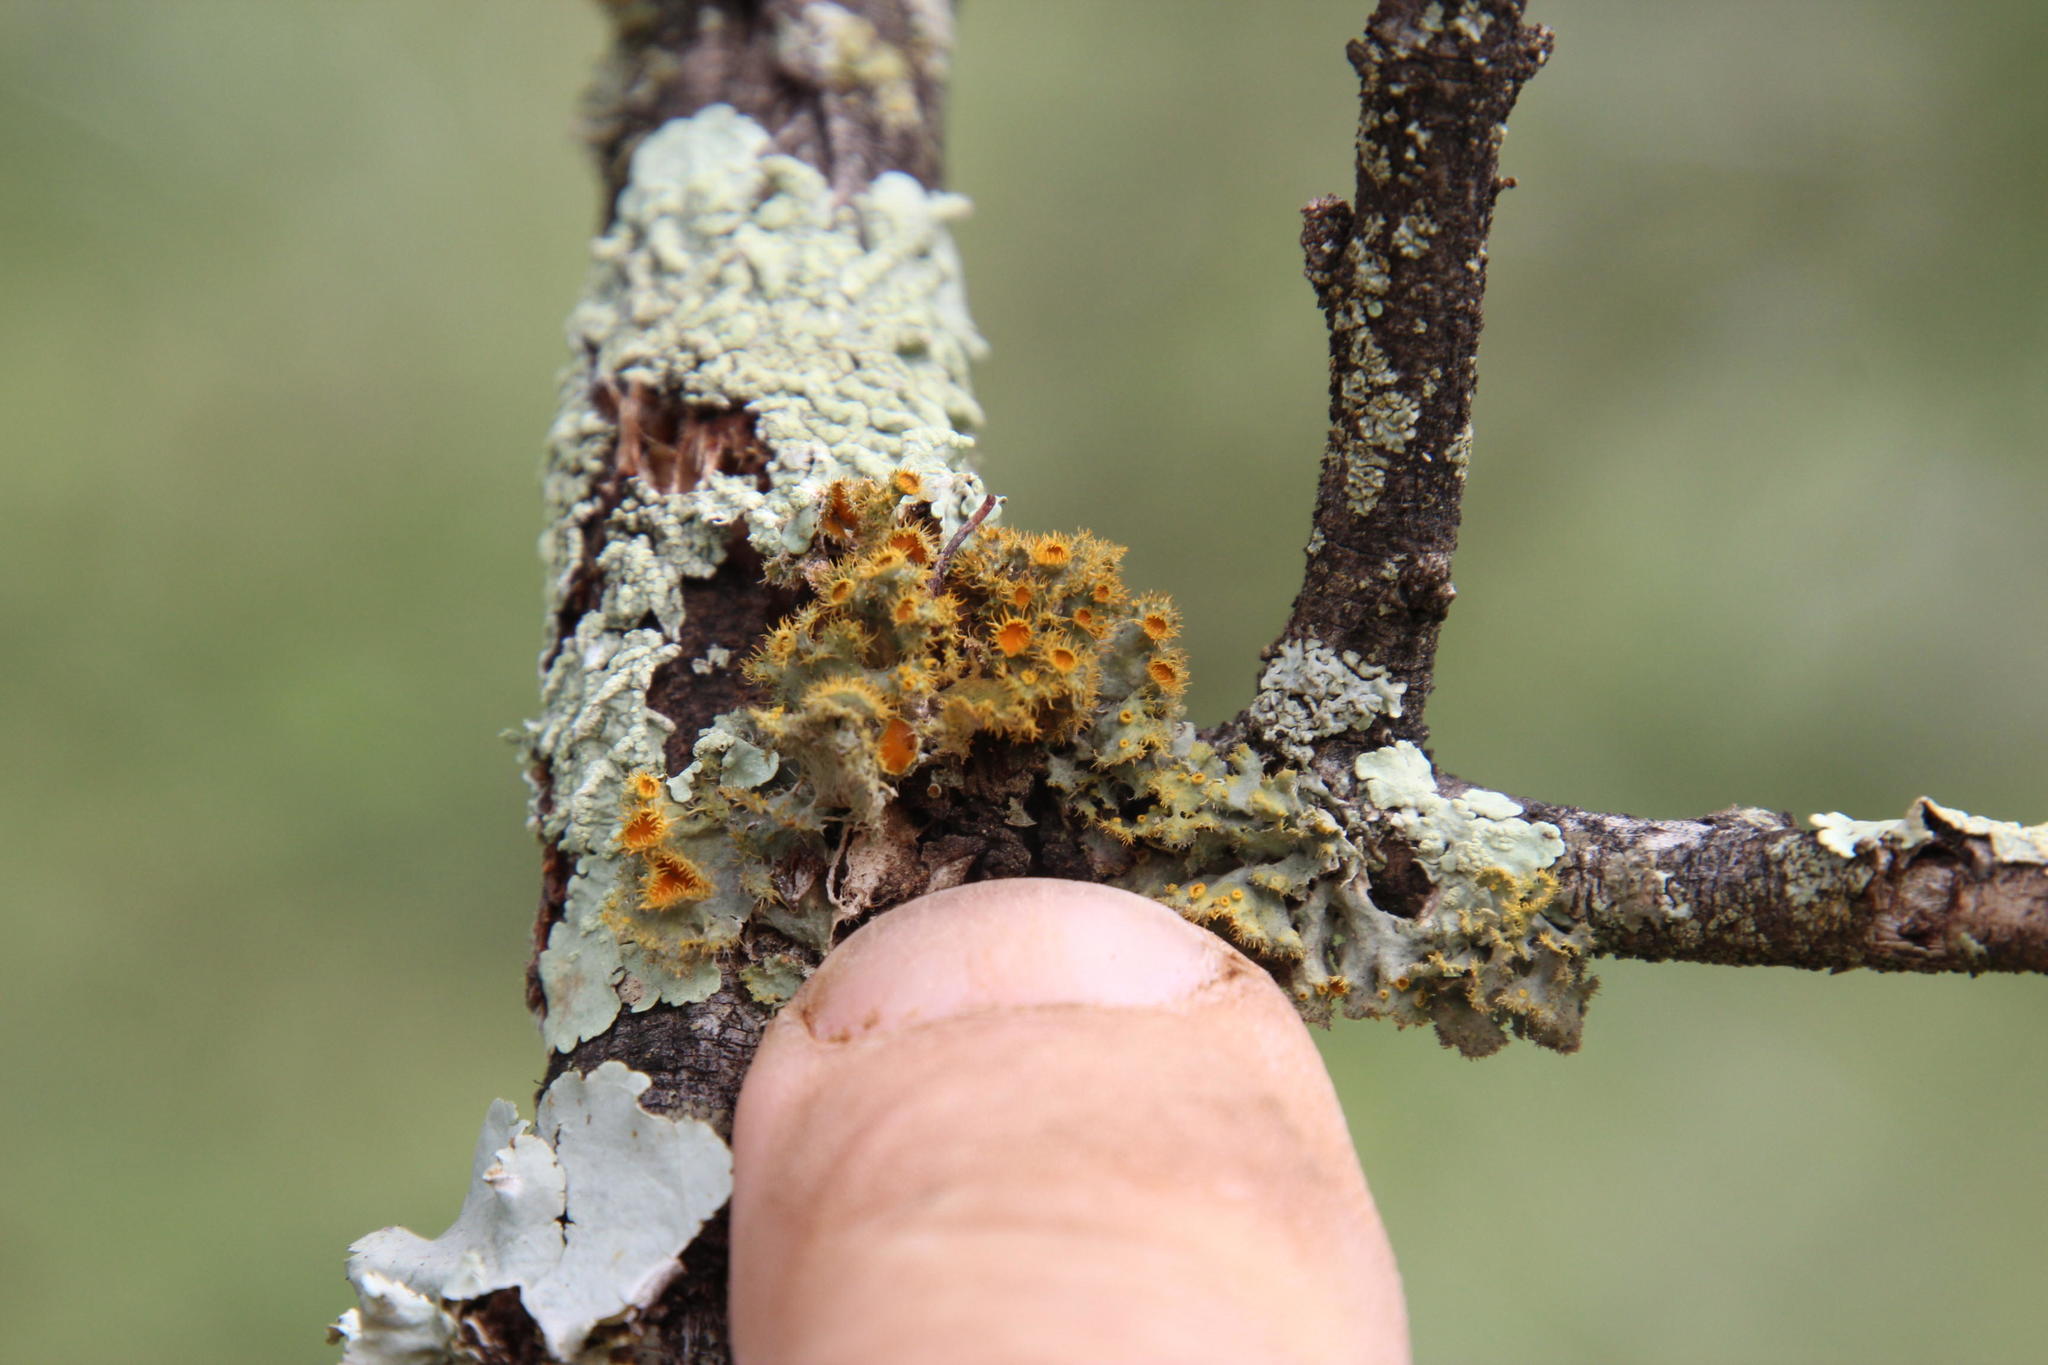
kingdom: Fungi
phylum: Ascomycota
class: Lecanoromycetes
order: Teloschistales
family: Teloschistaceae
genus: Niorma
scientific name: Niorma hypoglauca
